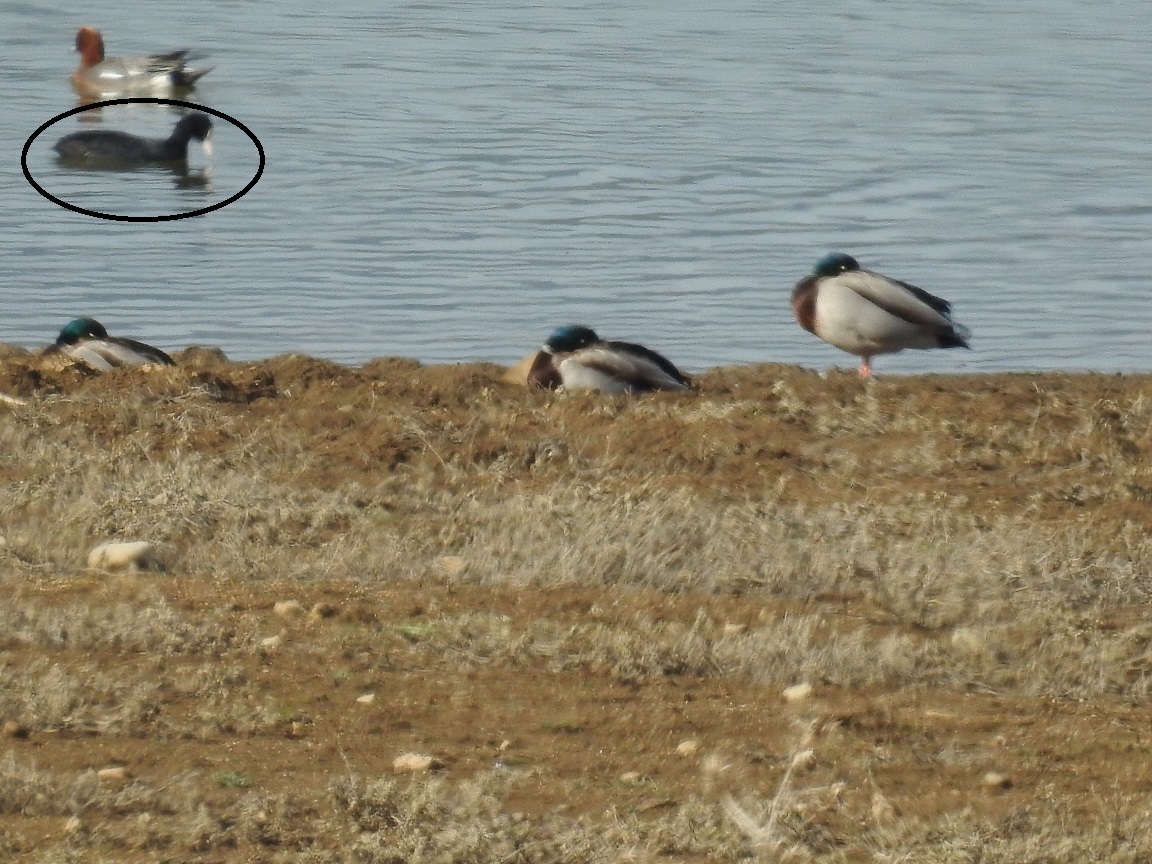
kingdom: Animalia
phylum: Chordata
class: Aves
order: Gruiformes
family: Rallidae
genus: Fulica
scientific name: Fulica atra
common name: Eurasian coot
